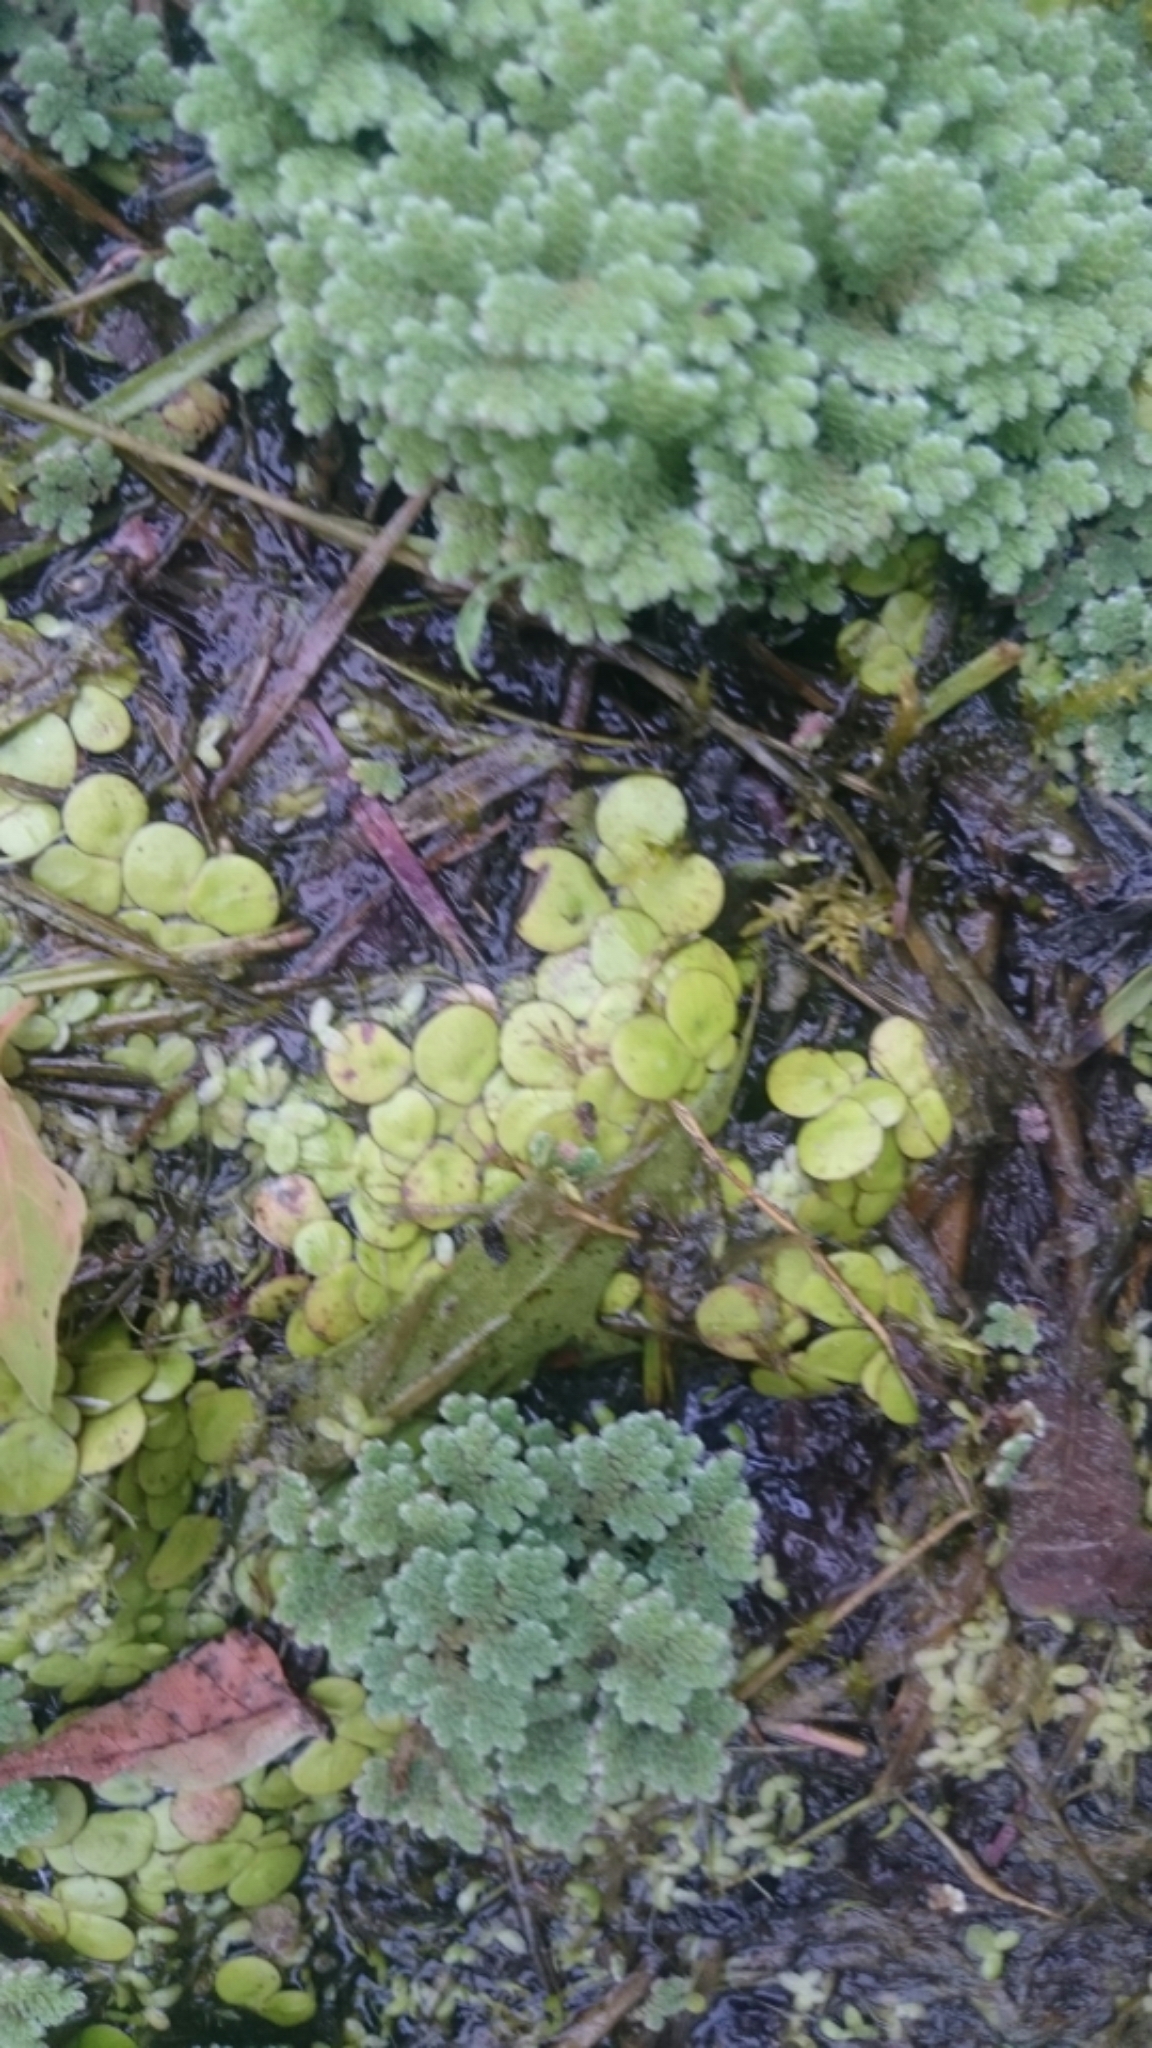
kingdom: Plantae
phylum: Tracheophyta
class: Liliopsida
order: Alismatales
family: Araceae
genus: Spirodela
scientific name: Spirodela polyrhiza
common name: Great duckweed
